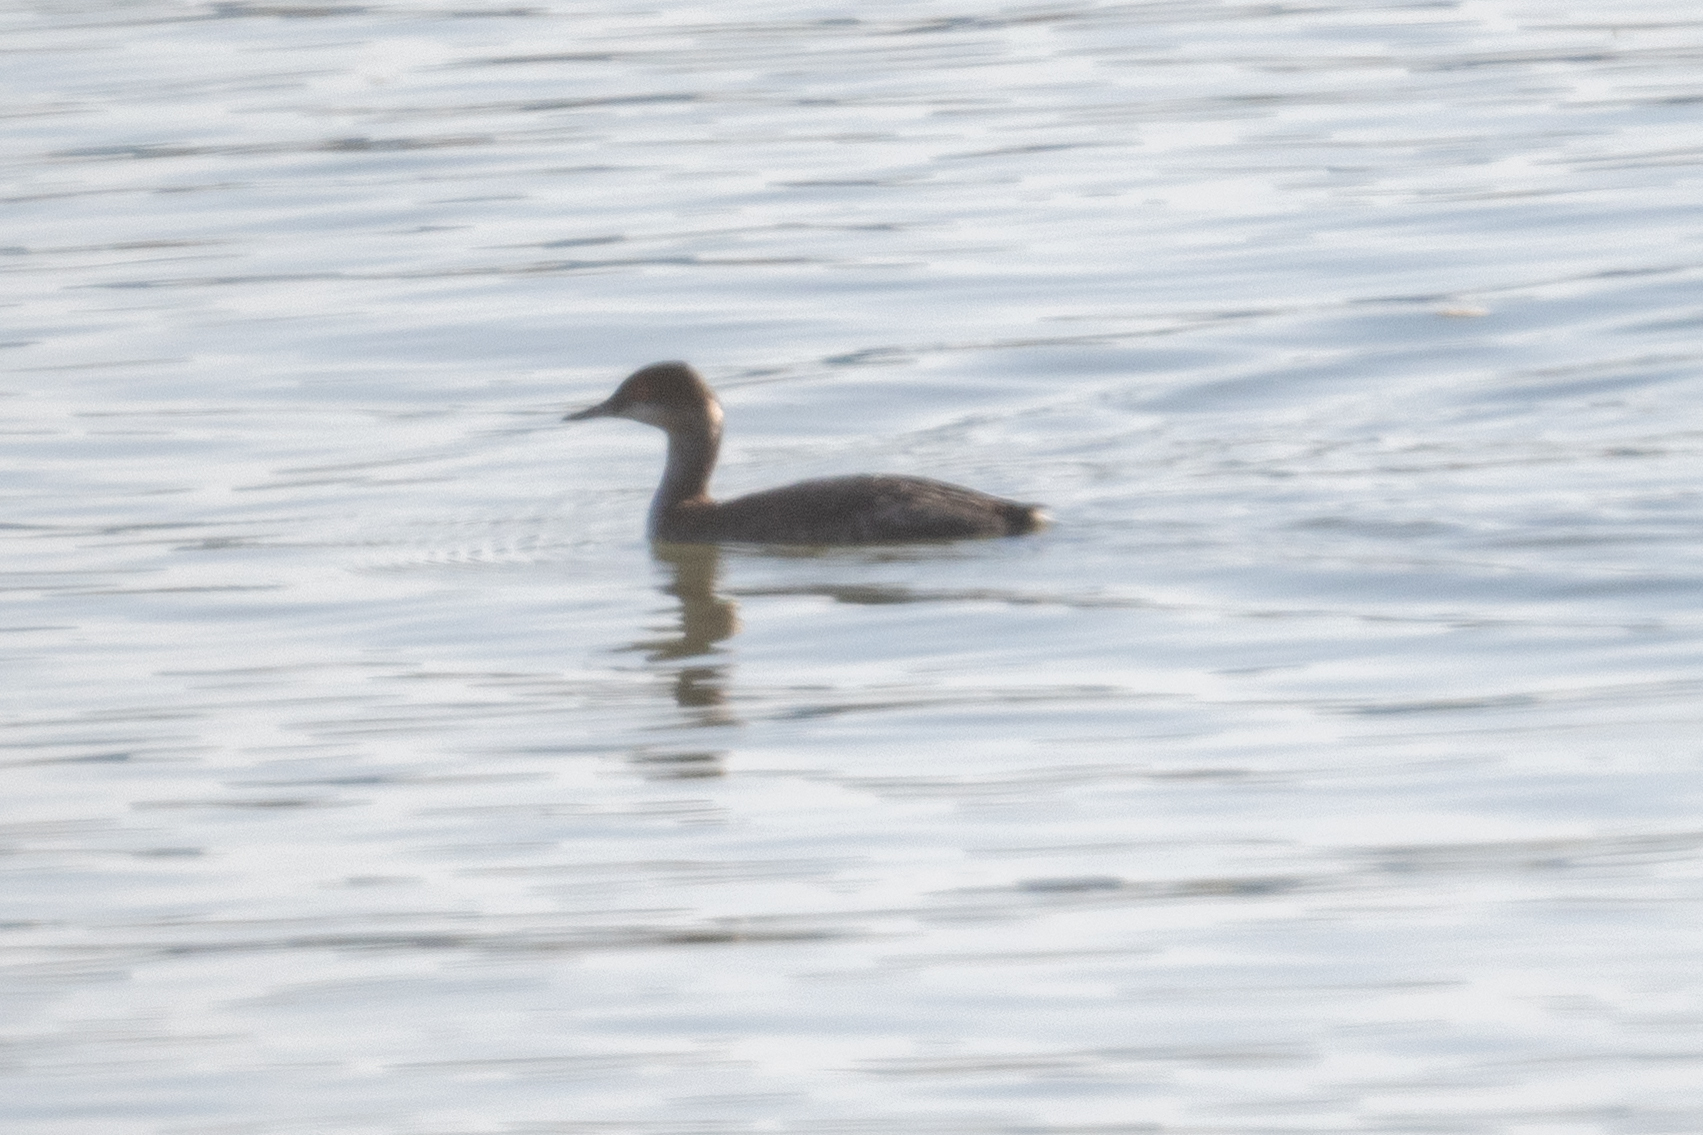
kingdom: Animalia
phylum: Chordata
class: Aves
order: Podicipediformes
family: Podicipedidae
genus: Podiceps
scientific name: Podiceps nigricollis
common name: Black-necked grebe
